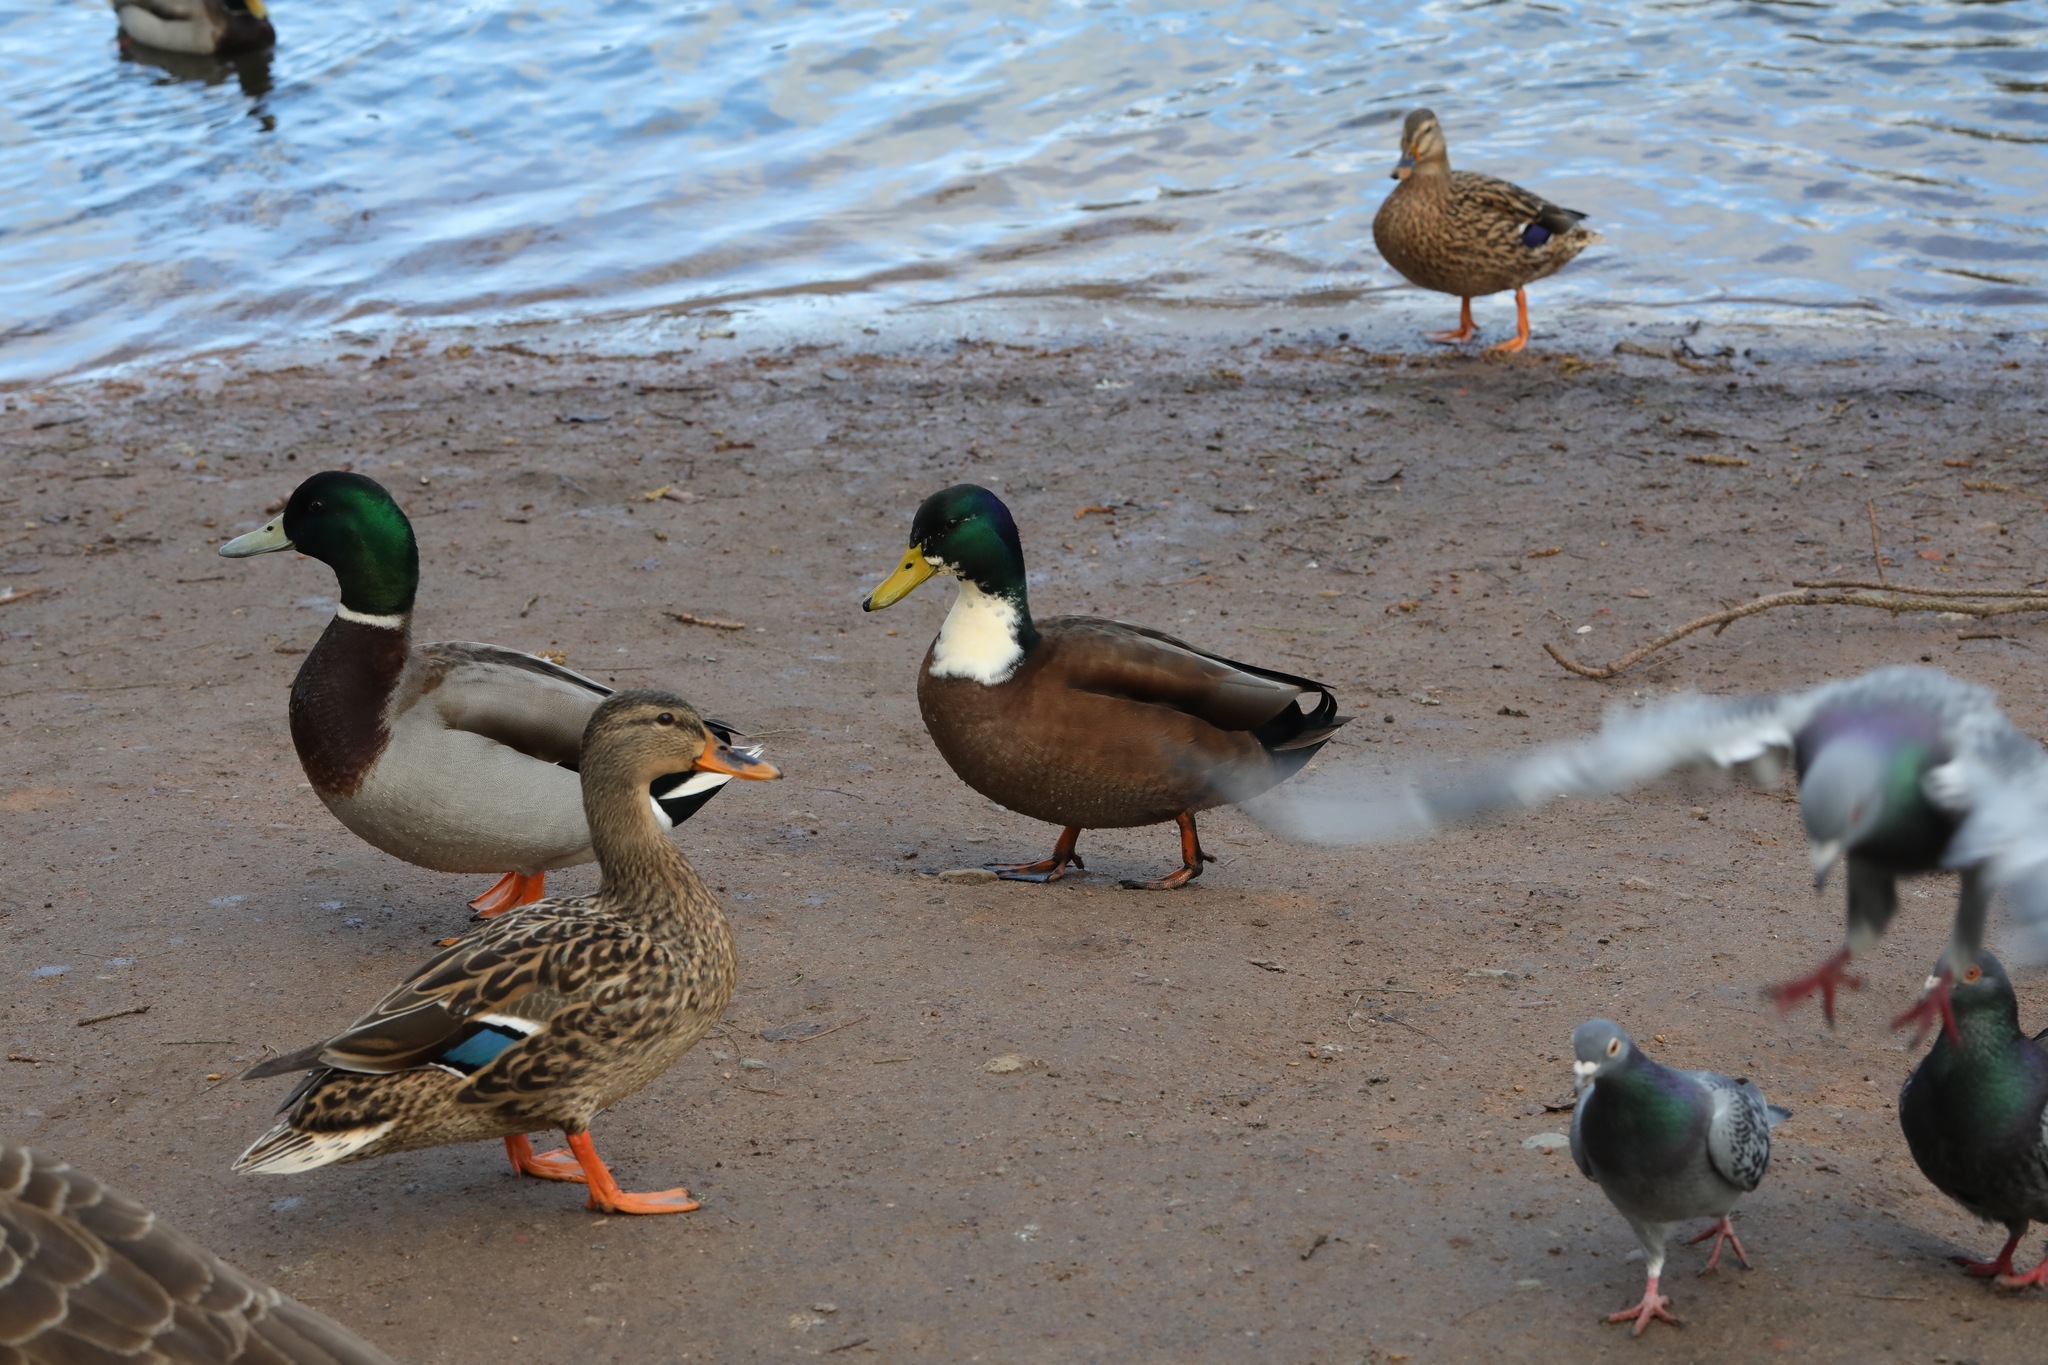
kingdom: Animalia
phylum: Chordata
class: Aves
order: Anseriformes
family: Anatidae
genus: Anas
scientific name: Anas platyrhynchos
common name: Mallard
